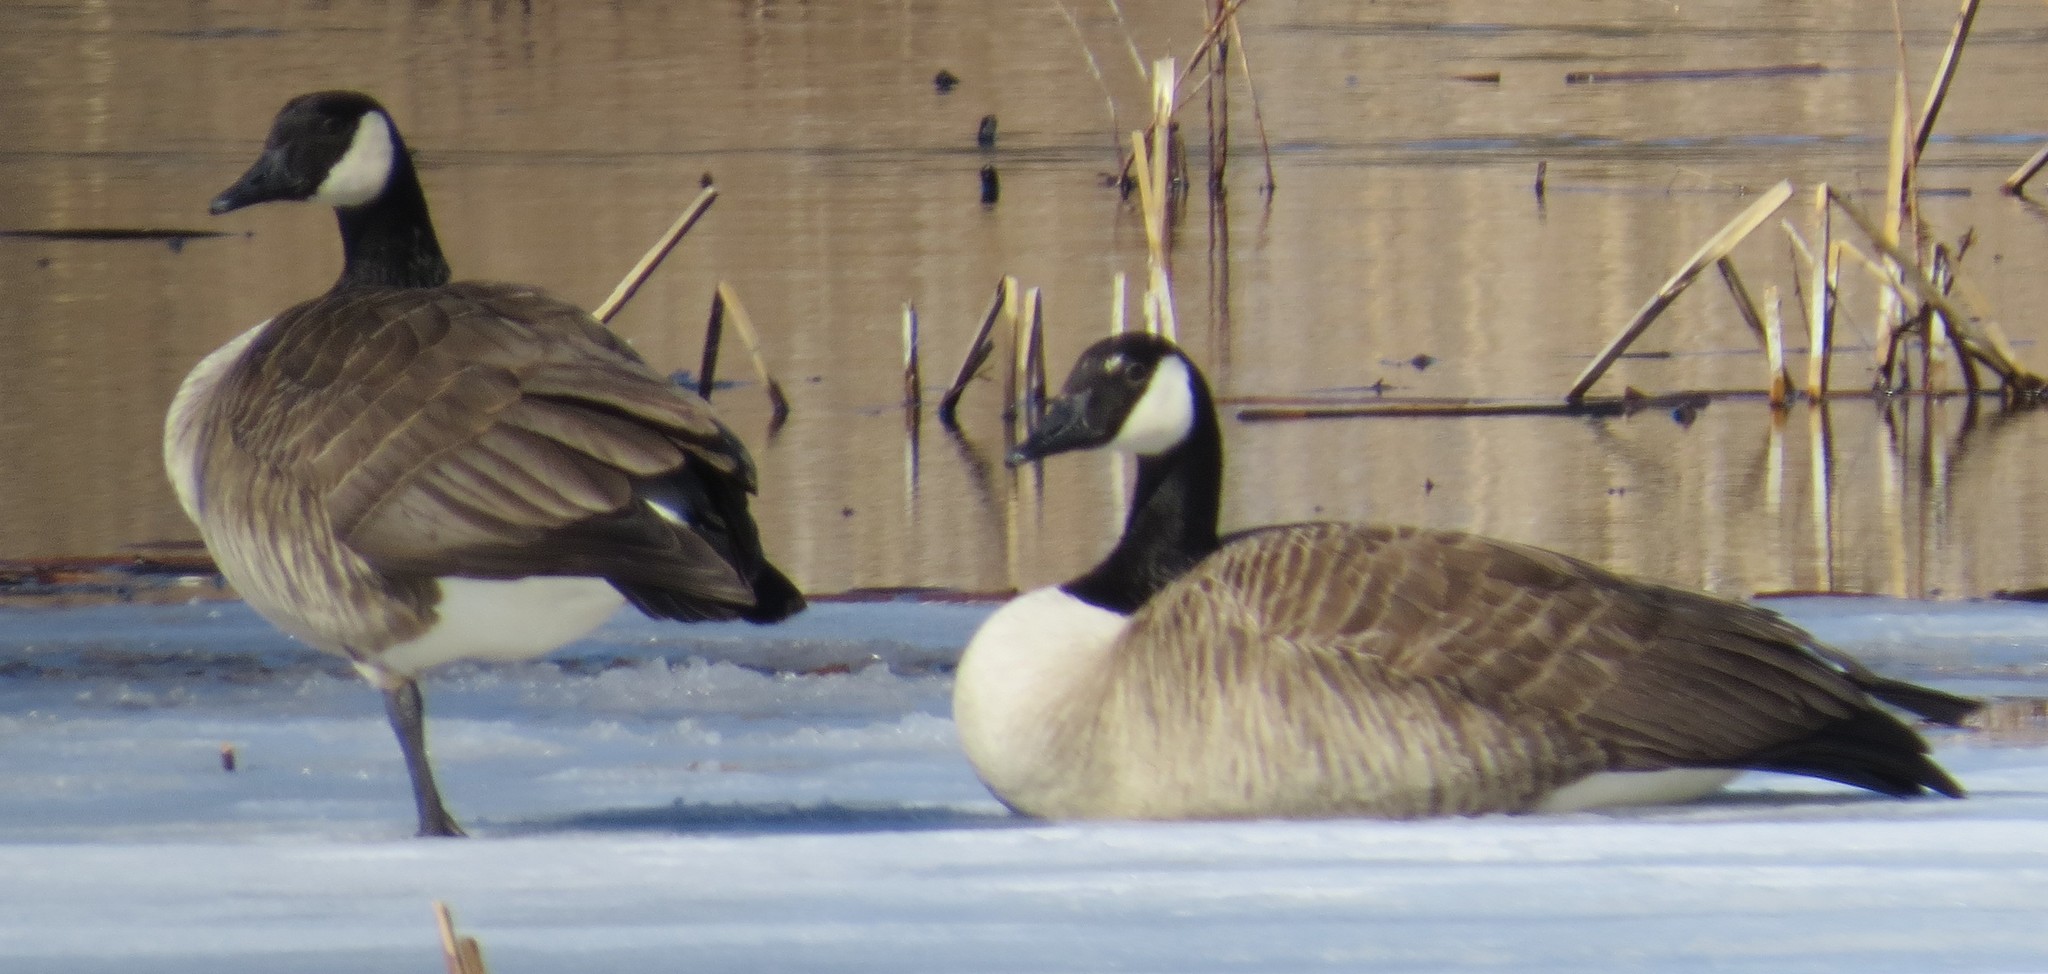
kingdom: Animalia
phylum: Chordata
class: Aves
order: Anseriformes
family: Anatidae
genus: Branta
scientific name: Branta canadensis
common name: Canada goose
